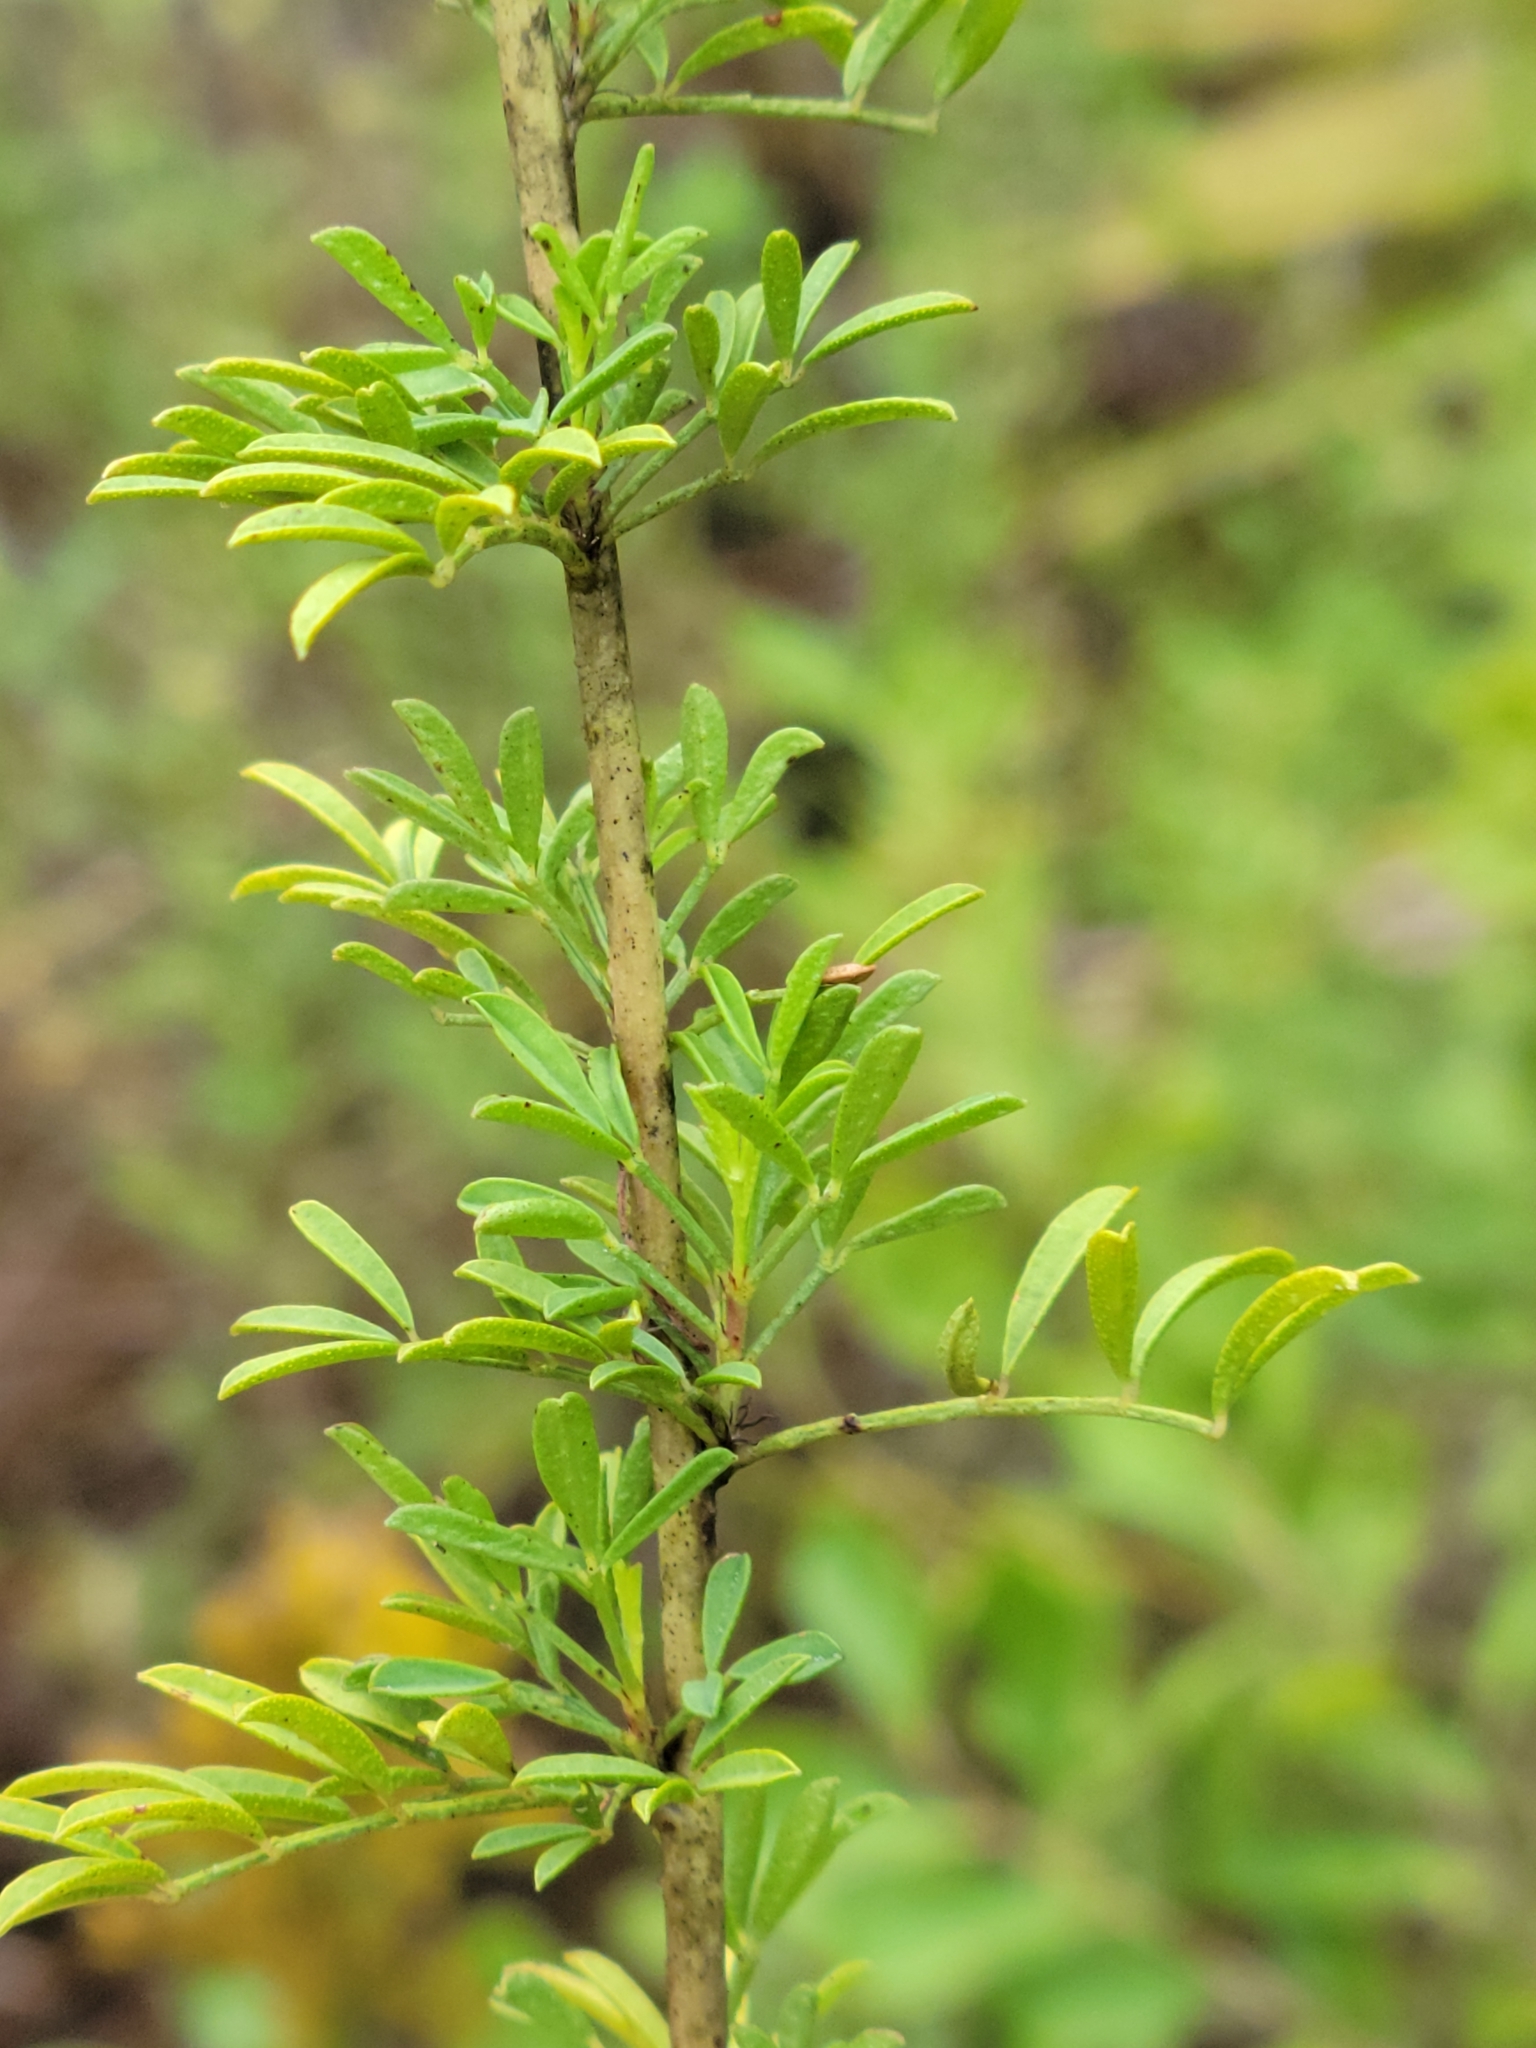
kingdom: Plantae
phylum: Tracheophyta
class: Magnoliopsida
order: Fabales
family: Fabaceae
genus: Dalea
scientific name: Dalea carnea
